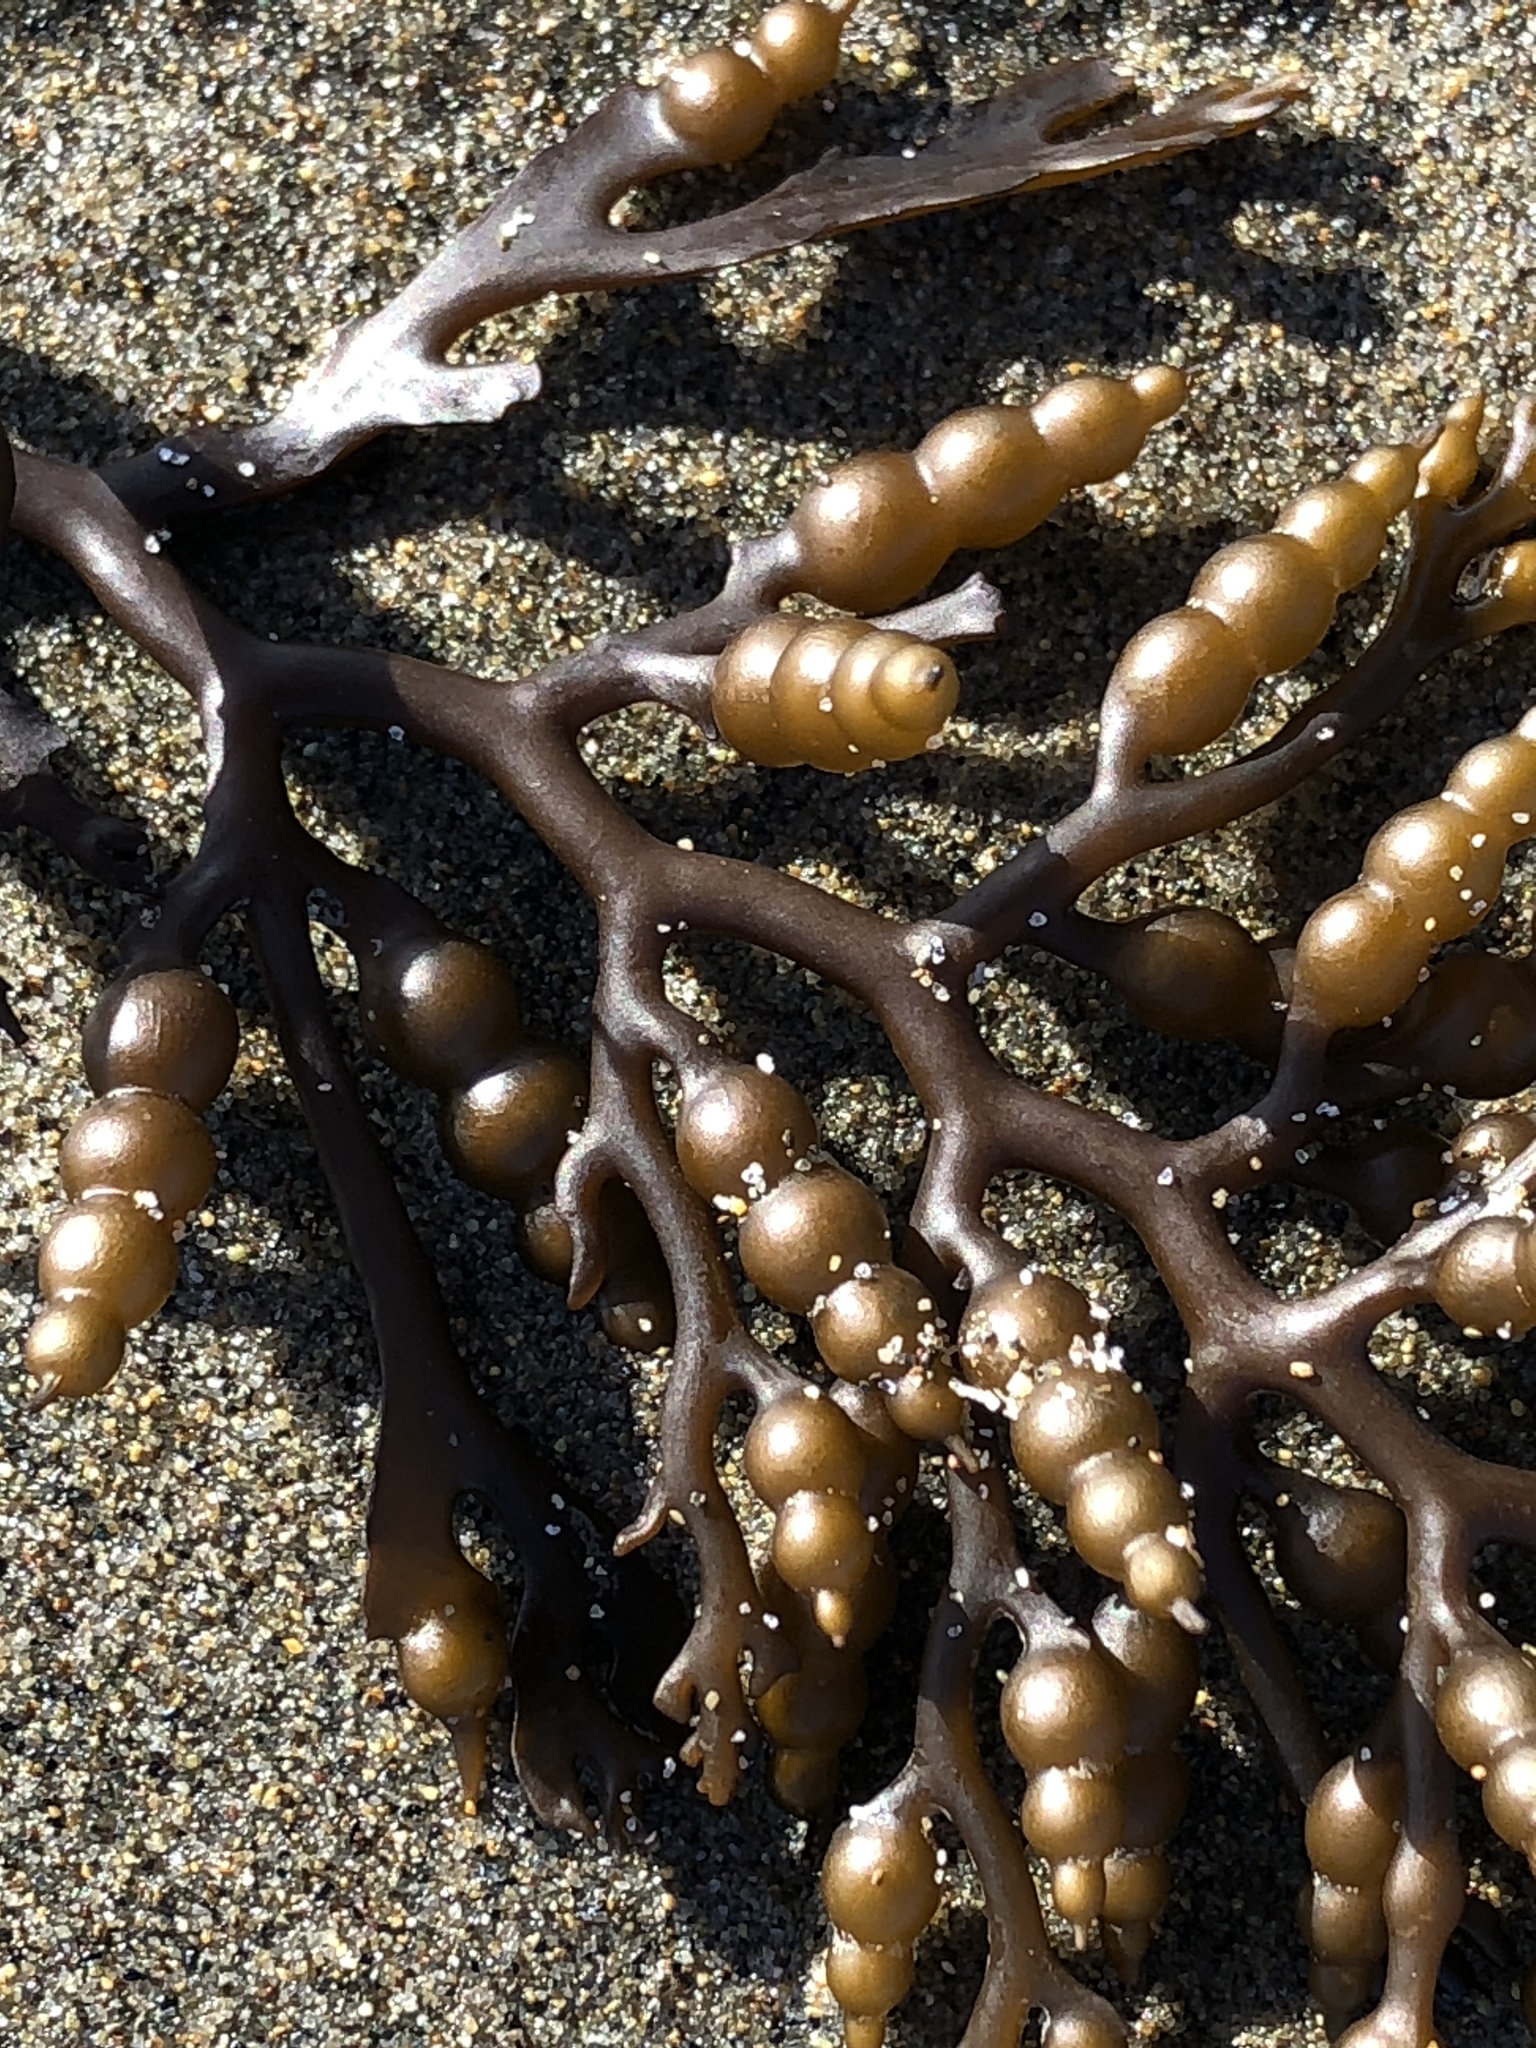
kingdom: Chromista
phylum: Ochrophyta
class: Phaeophyceae
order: Fucales
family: Sargassaceae
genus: Stephanocystis
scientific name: Stephanocystis
